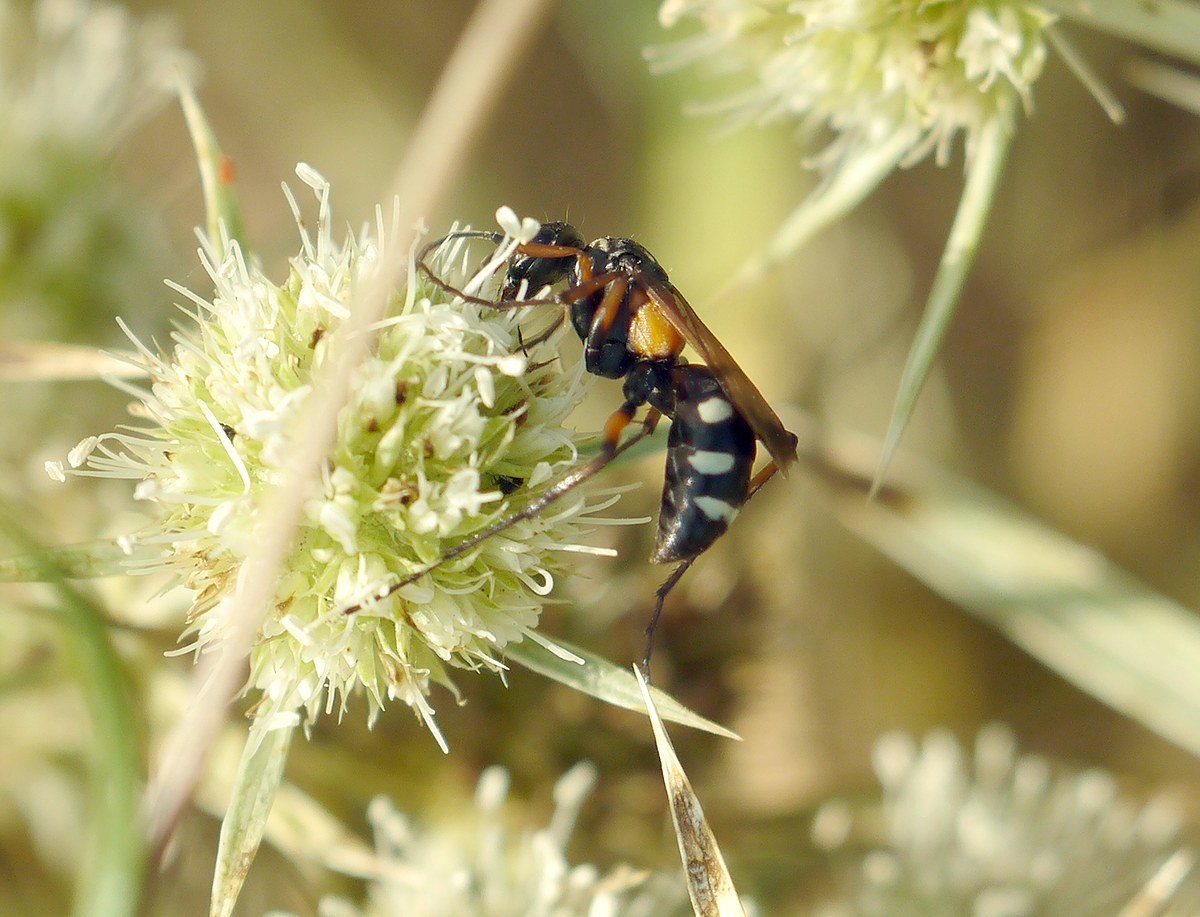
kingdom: Animalia
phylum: Arthropoda
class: Insecta
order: Hymenoptera
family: Pompilidae
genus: Cryptocheilus
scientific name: Cryptocheilus fabricii
